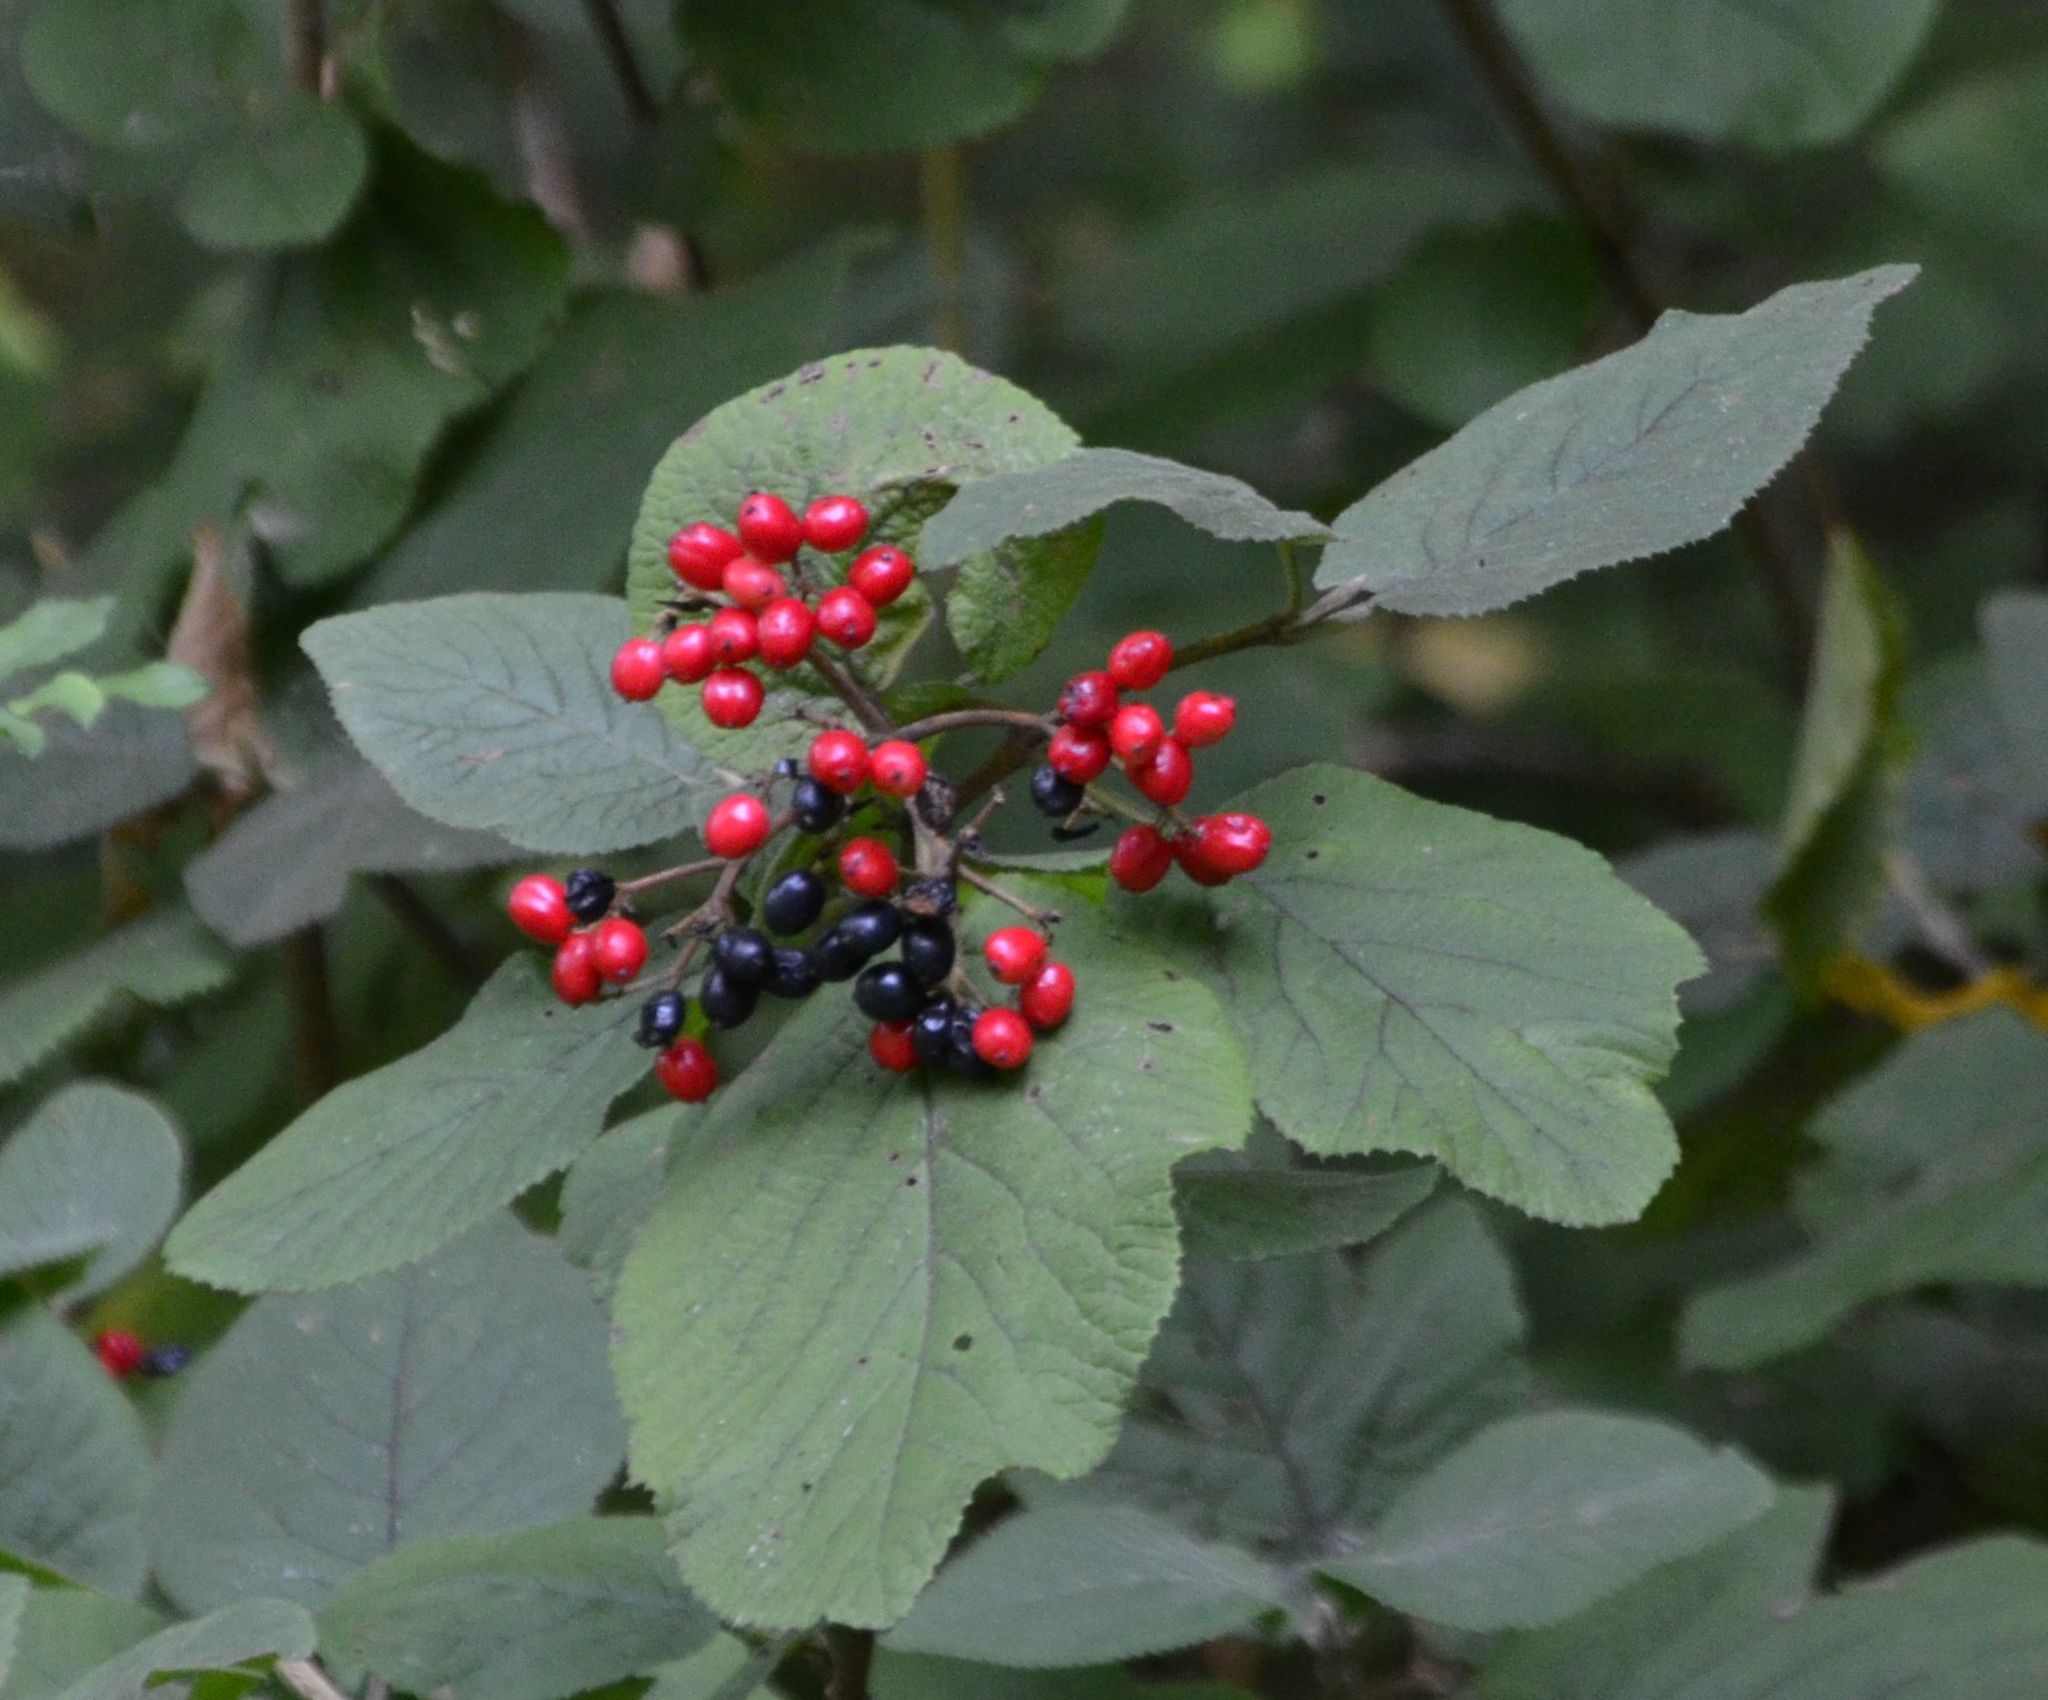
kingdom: Plantae
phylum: Tracheophyta
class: Magnoliopsida
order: Dipsacales
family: Viburnaceae
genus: Viburnum
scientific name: Viburnum lantana
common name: Wayfaring tree
